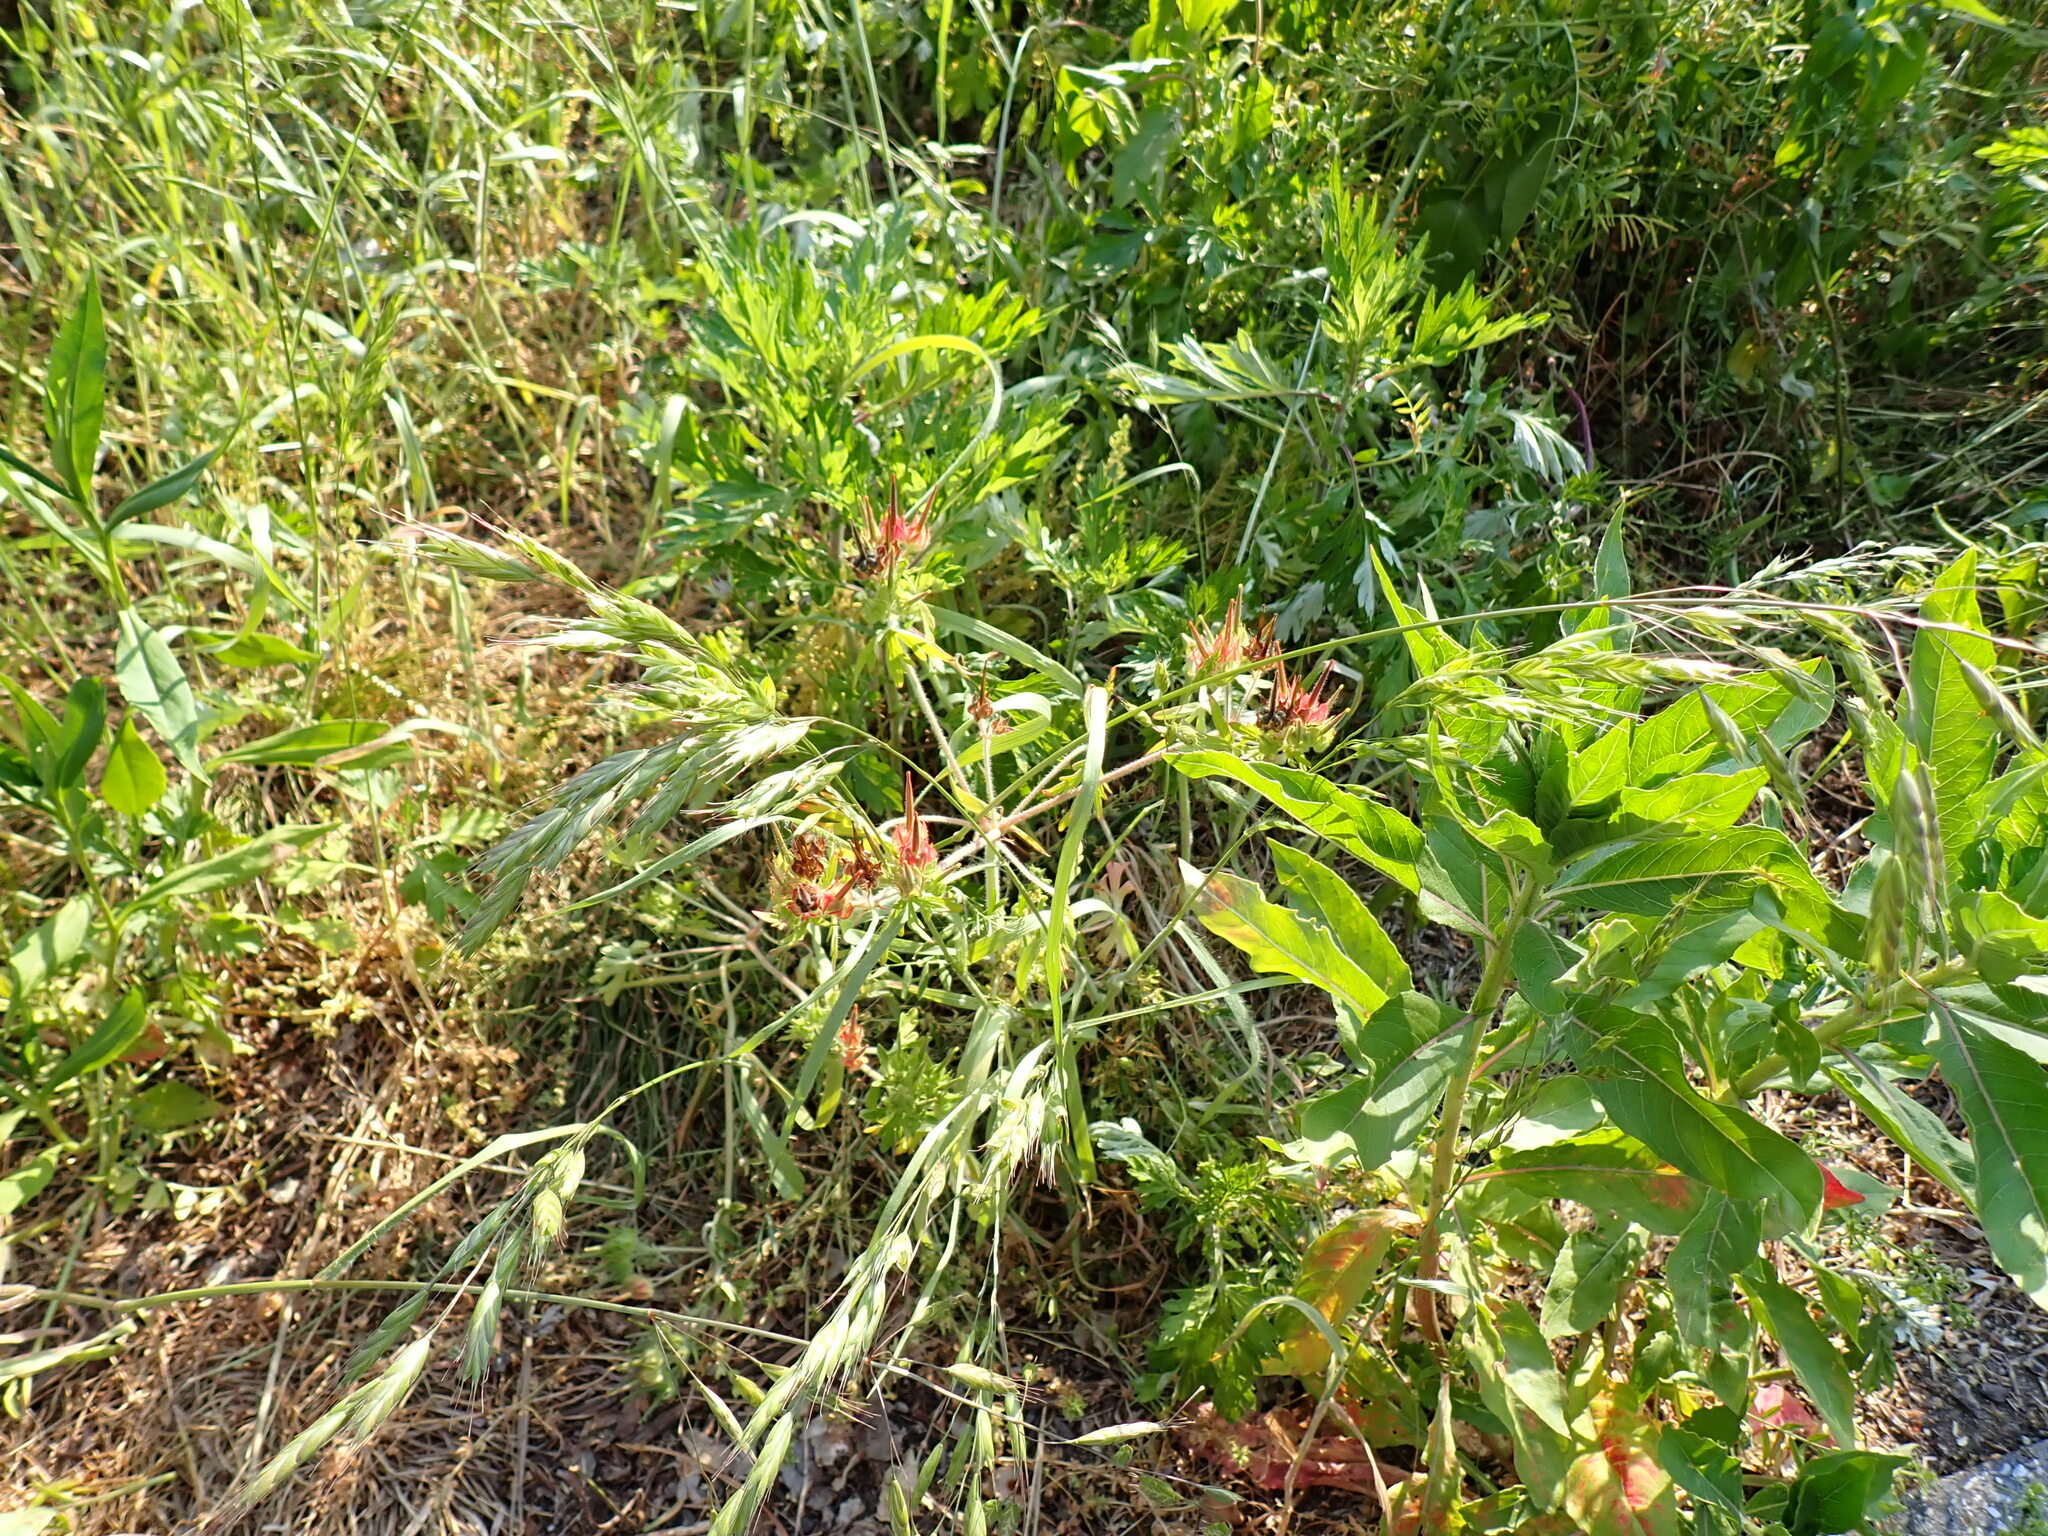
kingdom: Plantae
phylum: Tracheophyta
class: Magnoliopsida
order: Geraniales
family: Geraniaceae
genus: Geranium
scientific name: Geranium carolinianum
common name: Carolina crane's-bill
